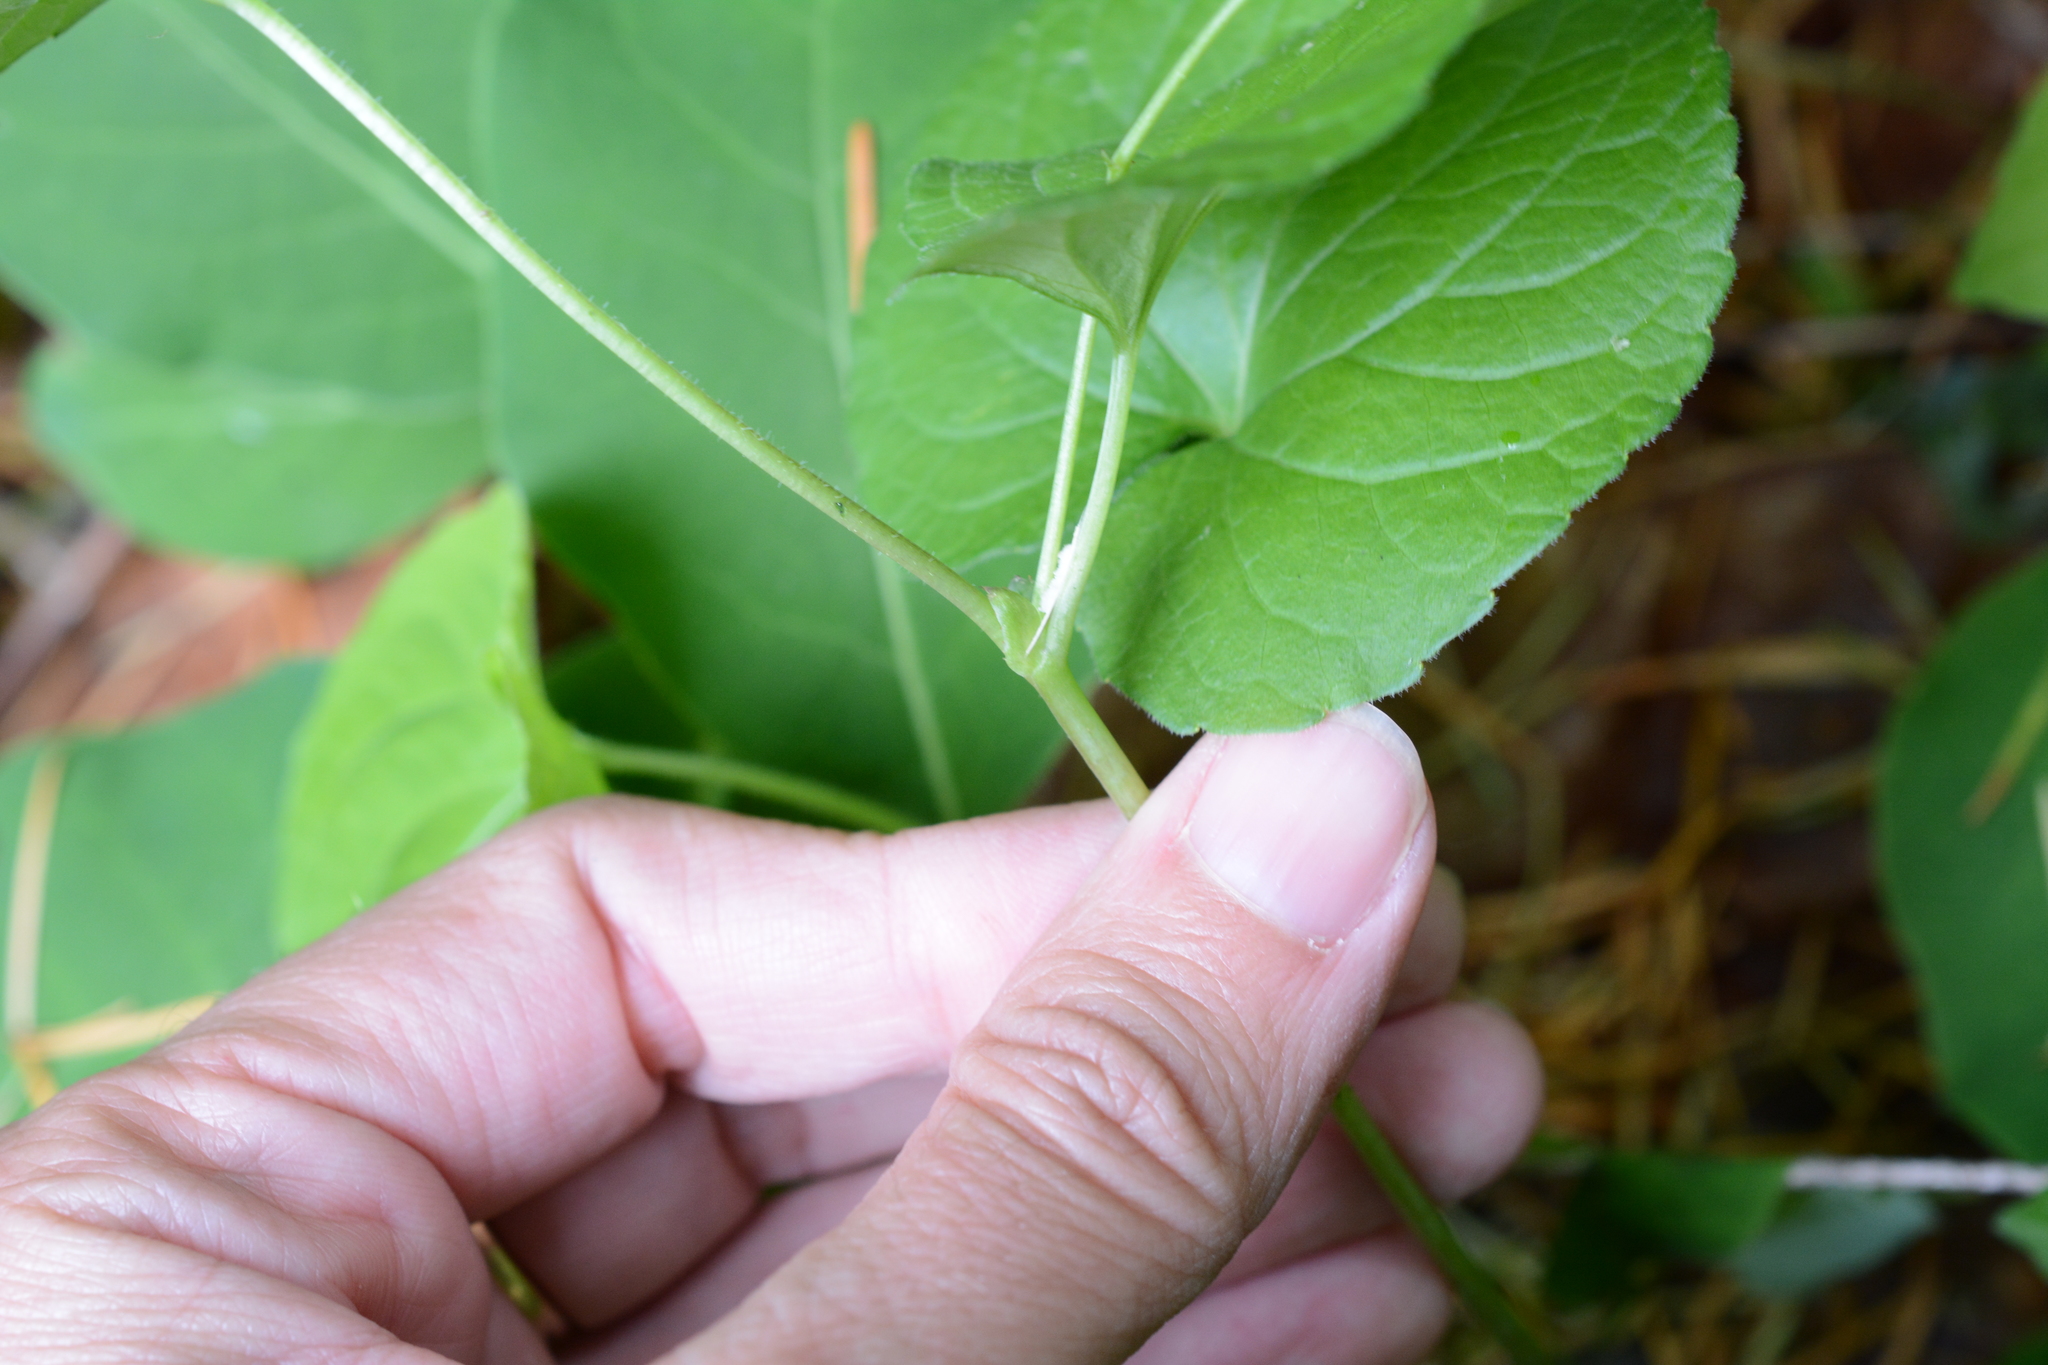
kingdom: Plantae
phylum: Tracheophyta
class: Magnoliopsida
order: Malpighiales
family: Violaceae
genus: Viola
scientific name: Viola glabella
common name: Stream violet
